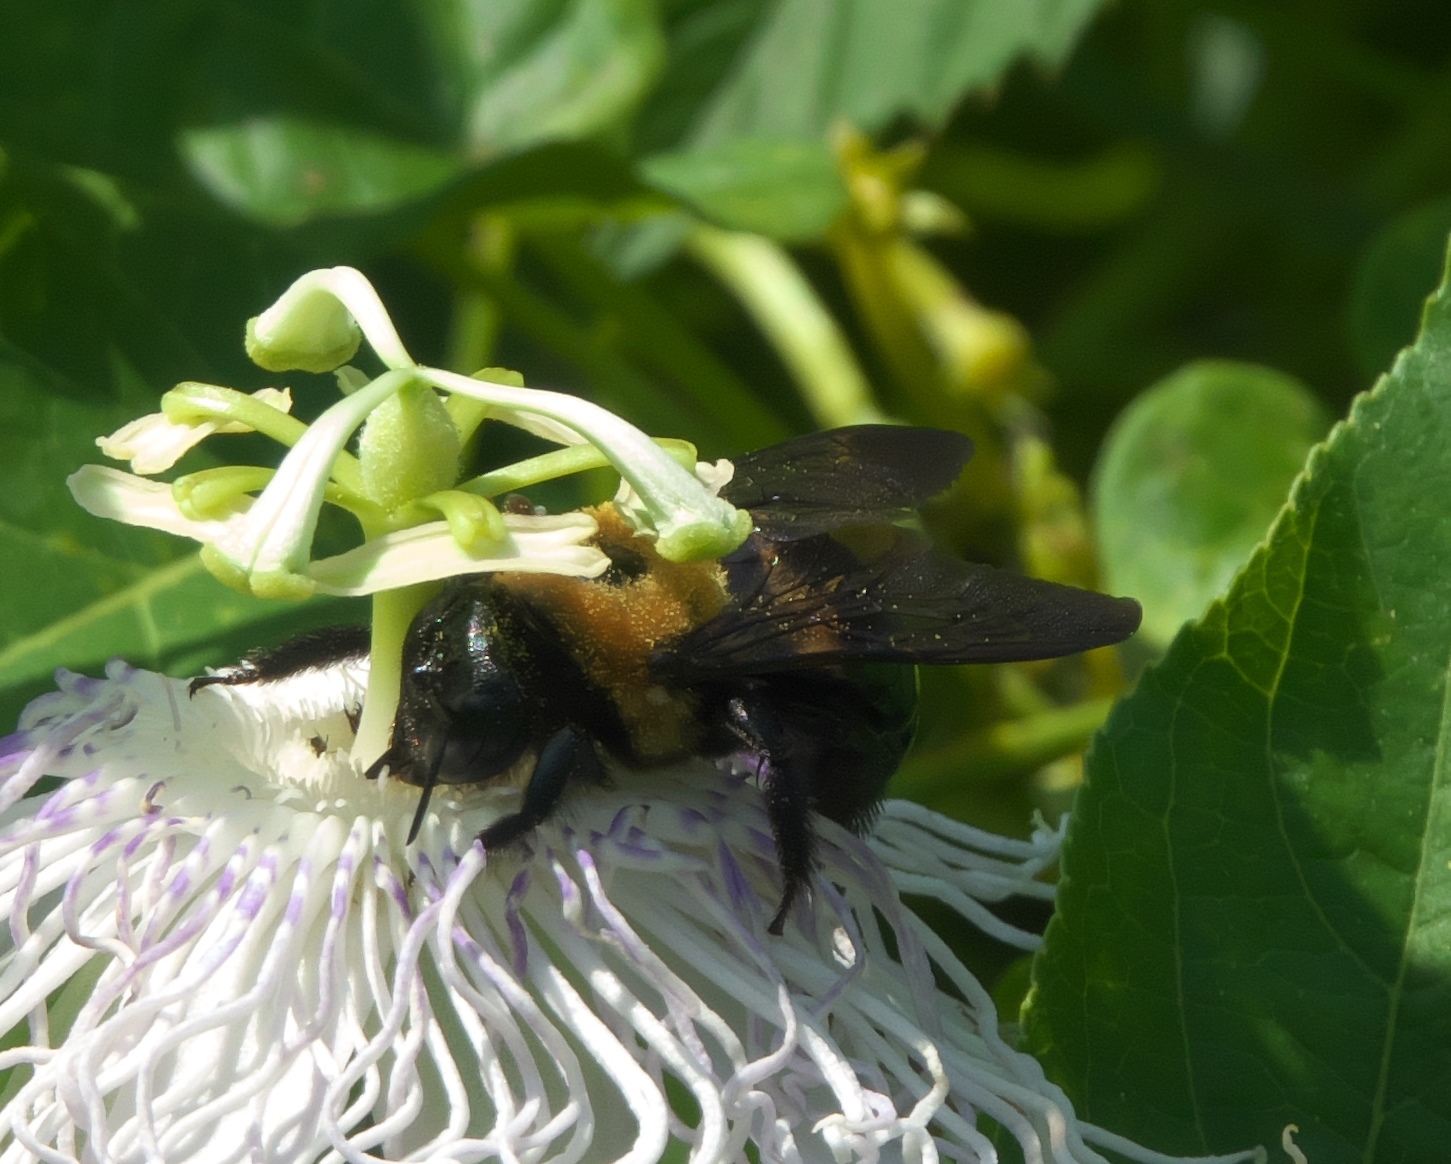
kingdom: Animalia
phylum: Arthropoda
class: Insecta
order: Hymenoptera
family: Apidae
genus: Xylocopa
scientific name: Xylocopa virginica
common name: Carpenter bee
